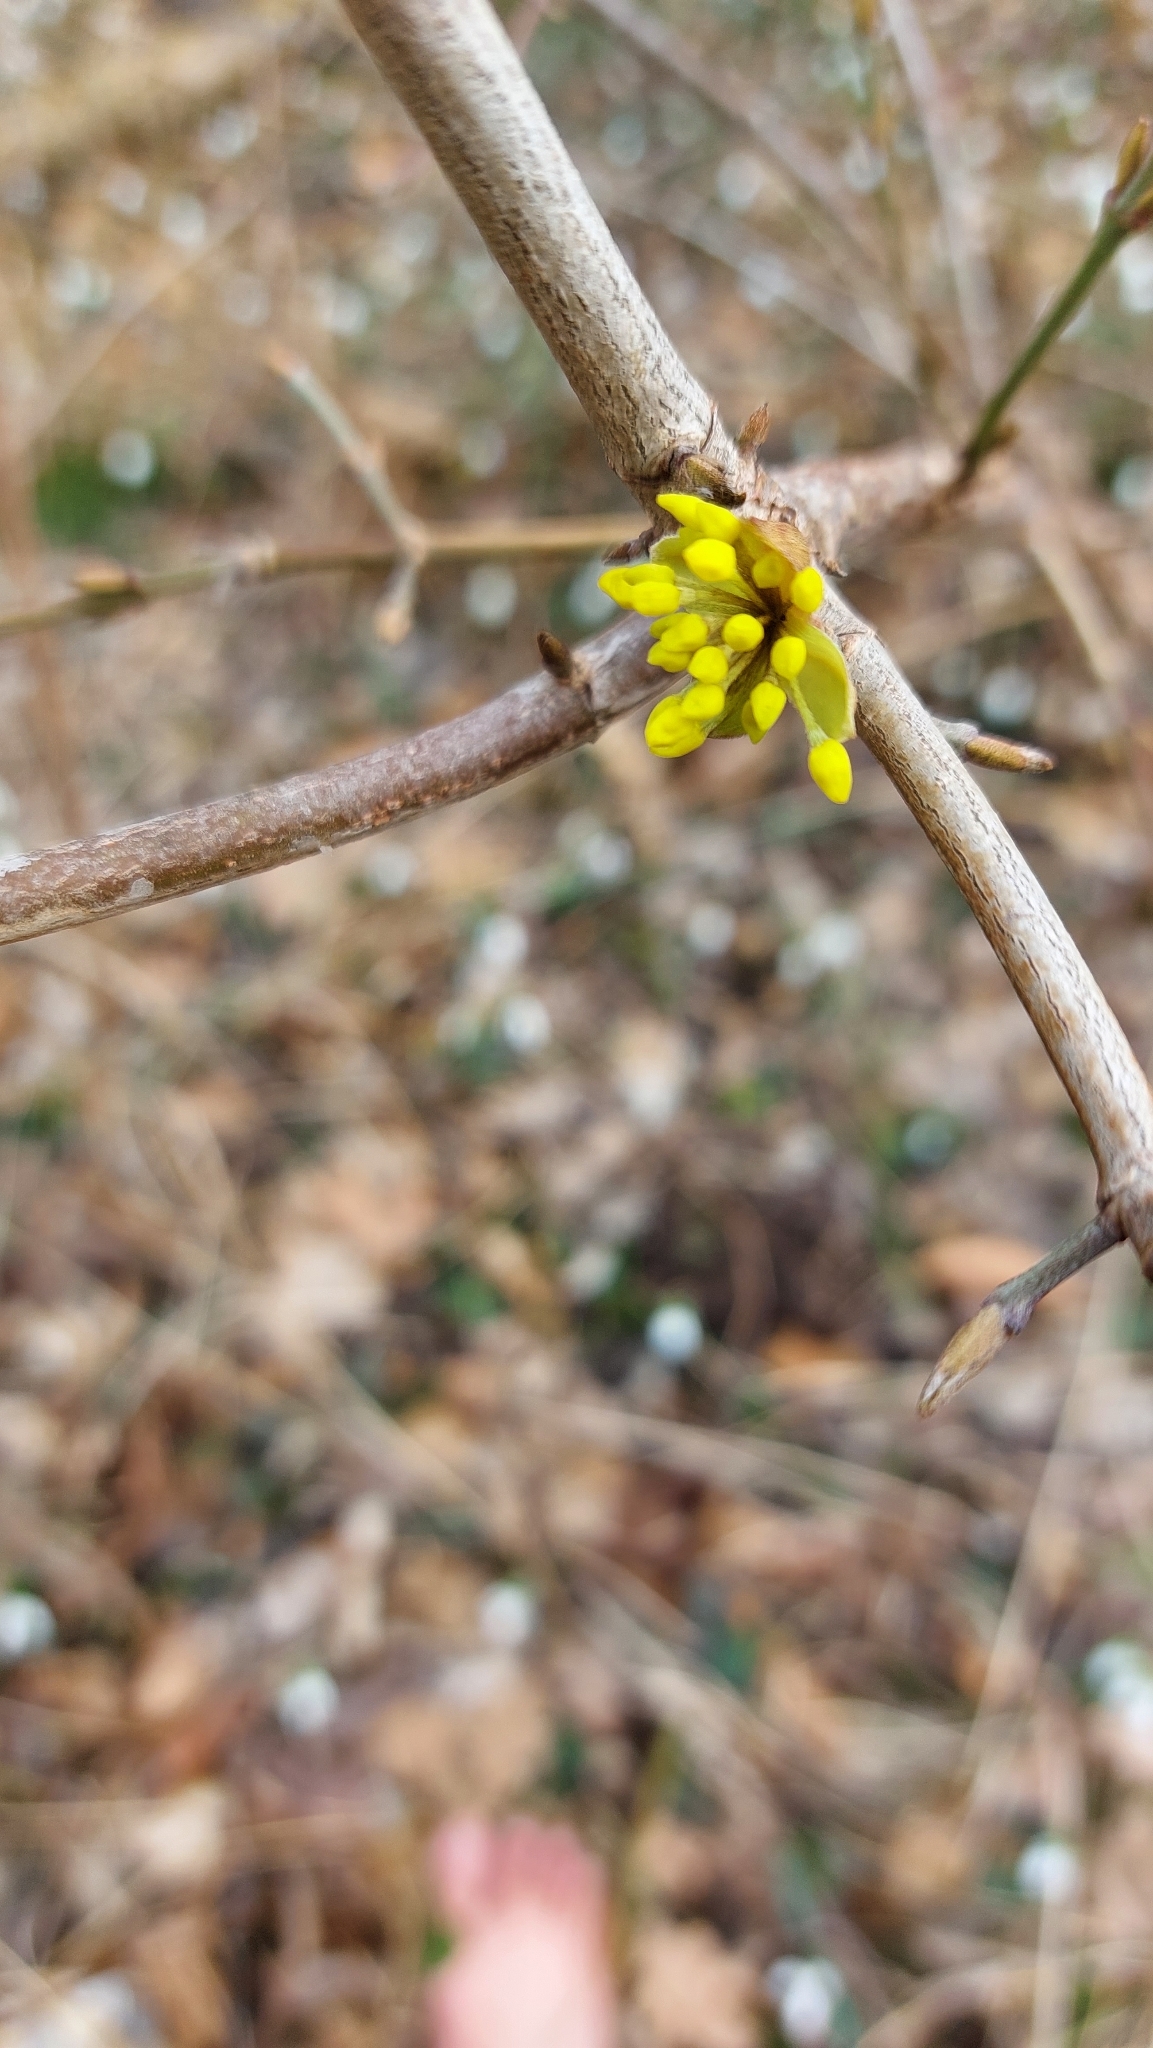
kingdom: Plantae
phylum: Tracheophyta
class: Magnoliopsida
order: Cornales
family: Cornaceae
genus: Cornus
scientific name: Cornus mas
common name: Cornelian-cherry
